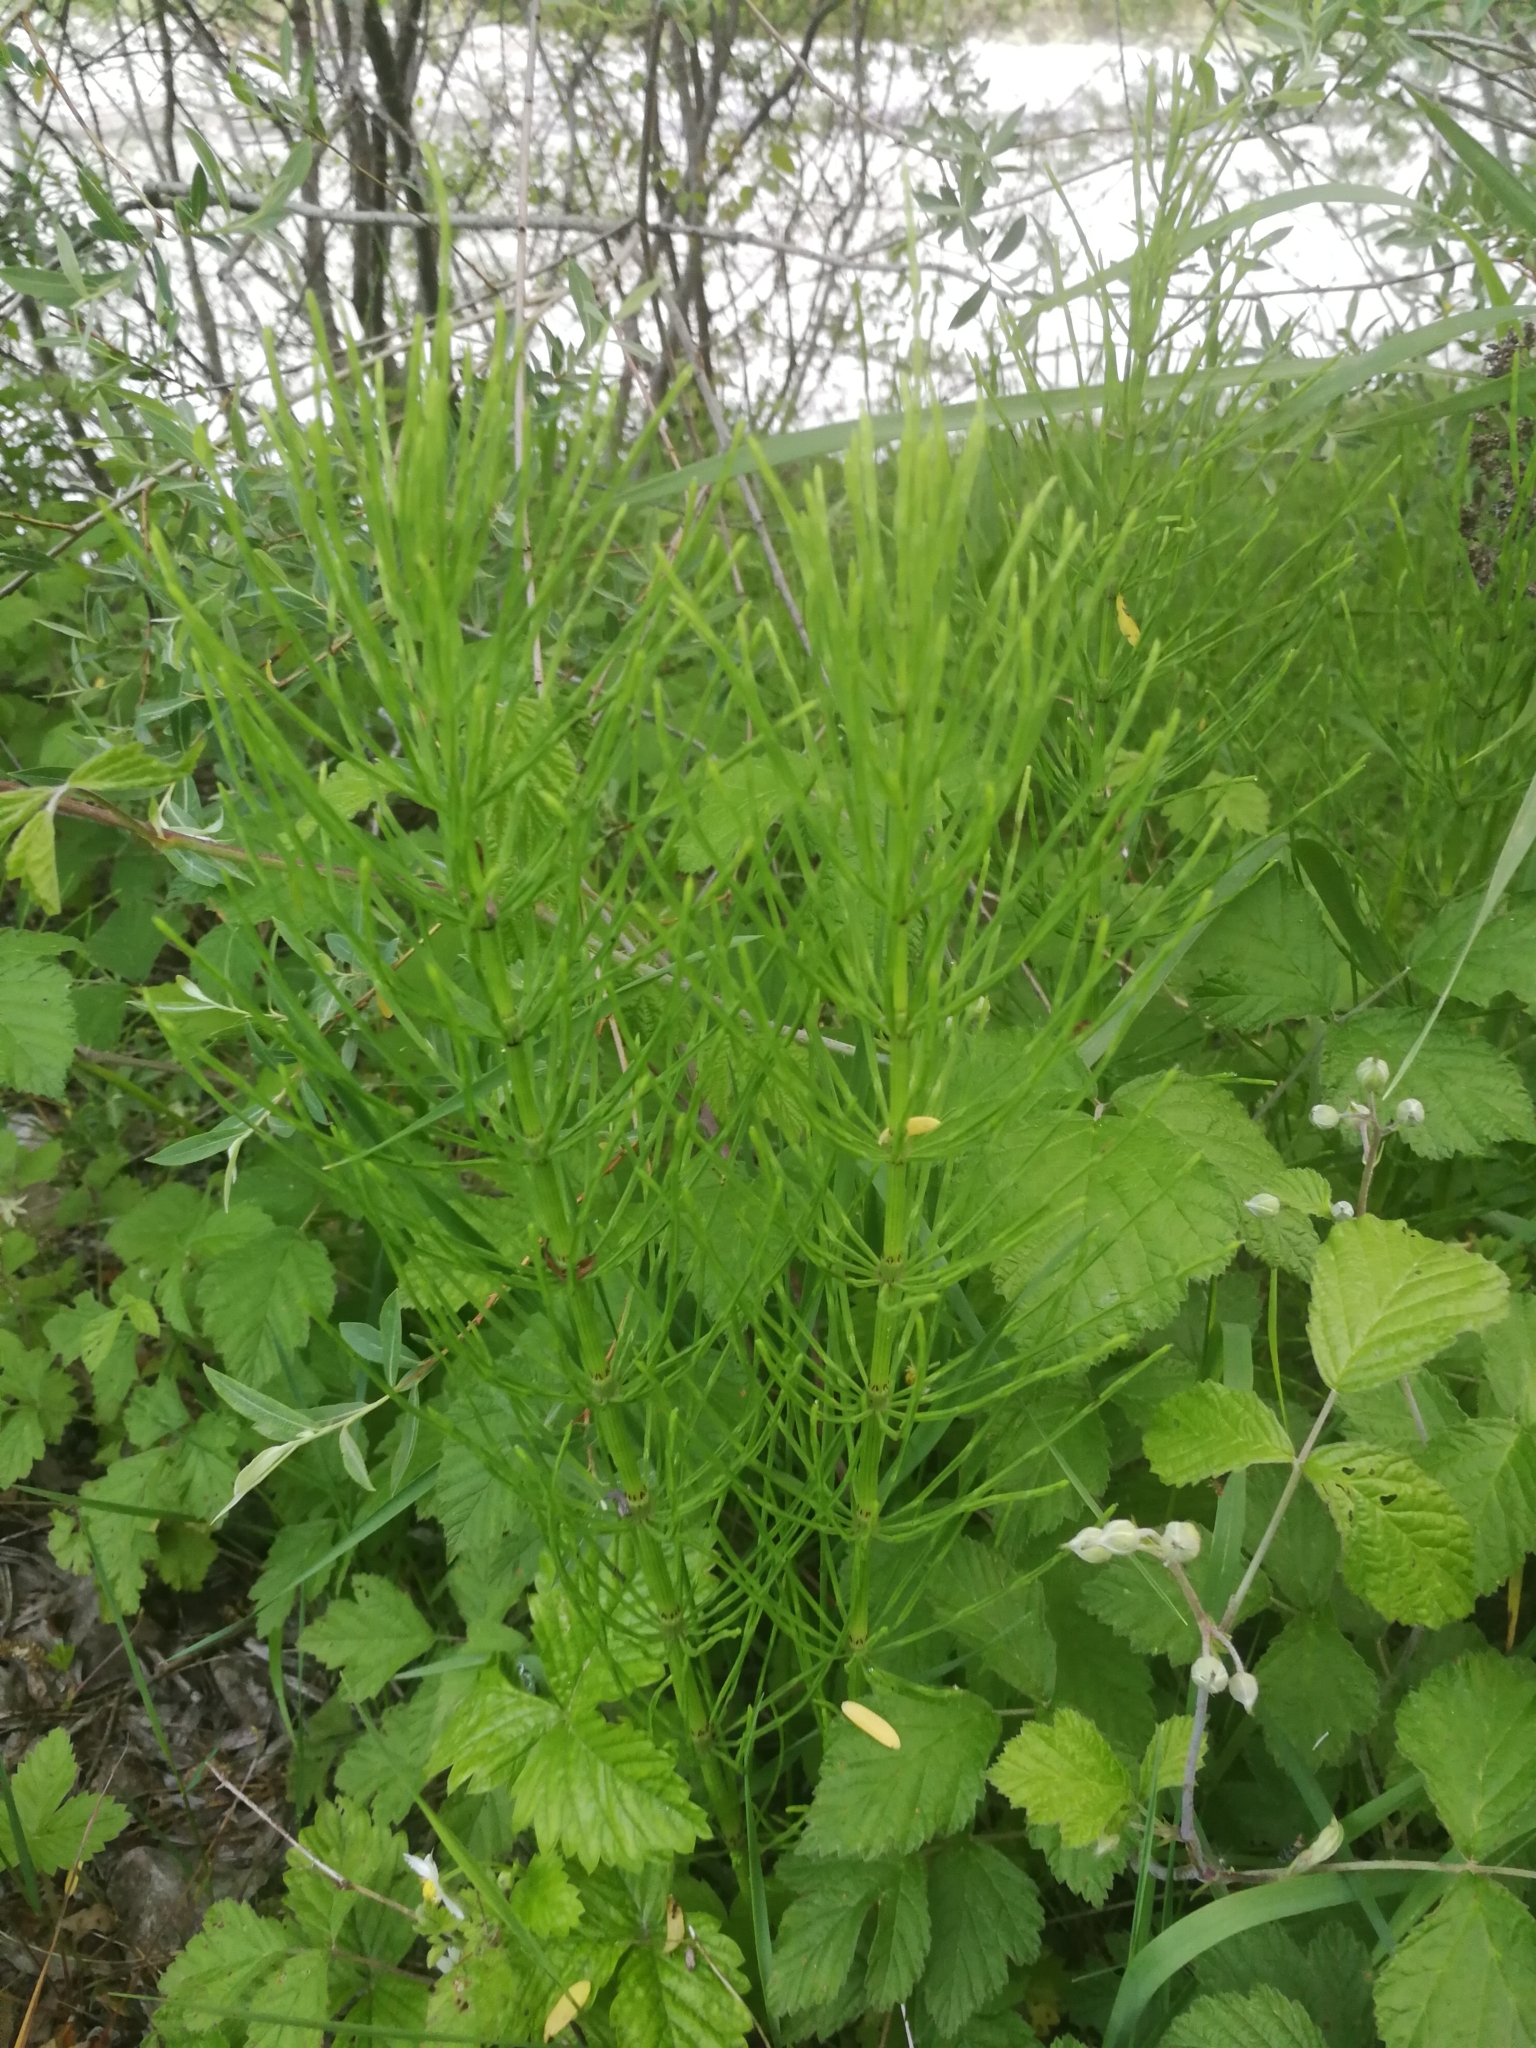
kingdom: Plantae
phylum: Tracheophyta
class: Polypodiopsida
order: Equisetales
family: Equisetaceae
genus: Equisetum
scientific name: Equisetum arvense
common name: Field horsetail
